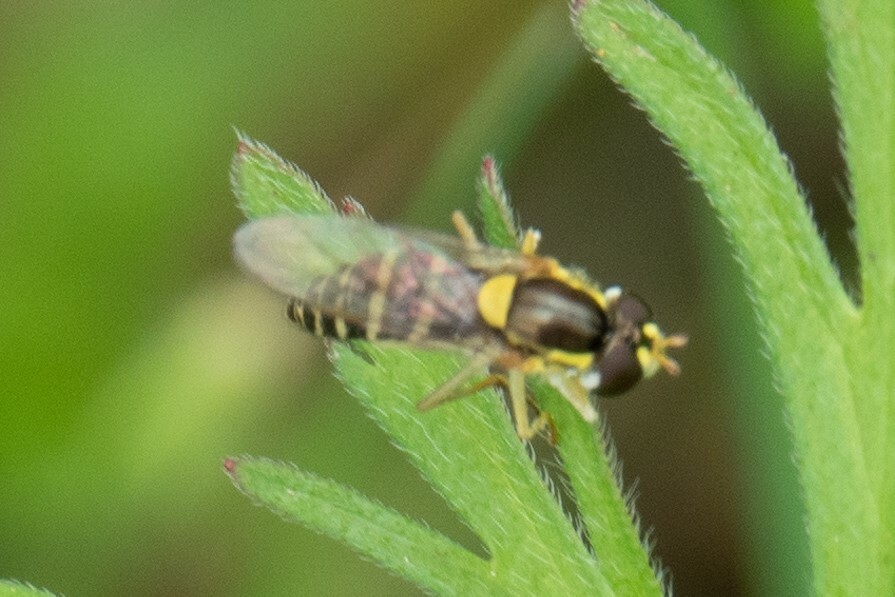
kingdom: Animalia
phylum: Arthropoda
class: Insecta
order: Diptera
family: Syrphidae
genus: Sphaerophoria
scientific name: Sphaerophoria
